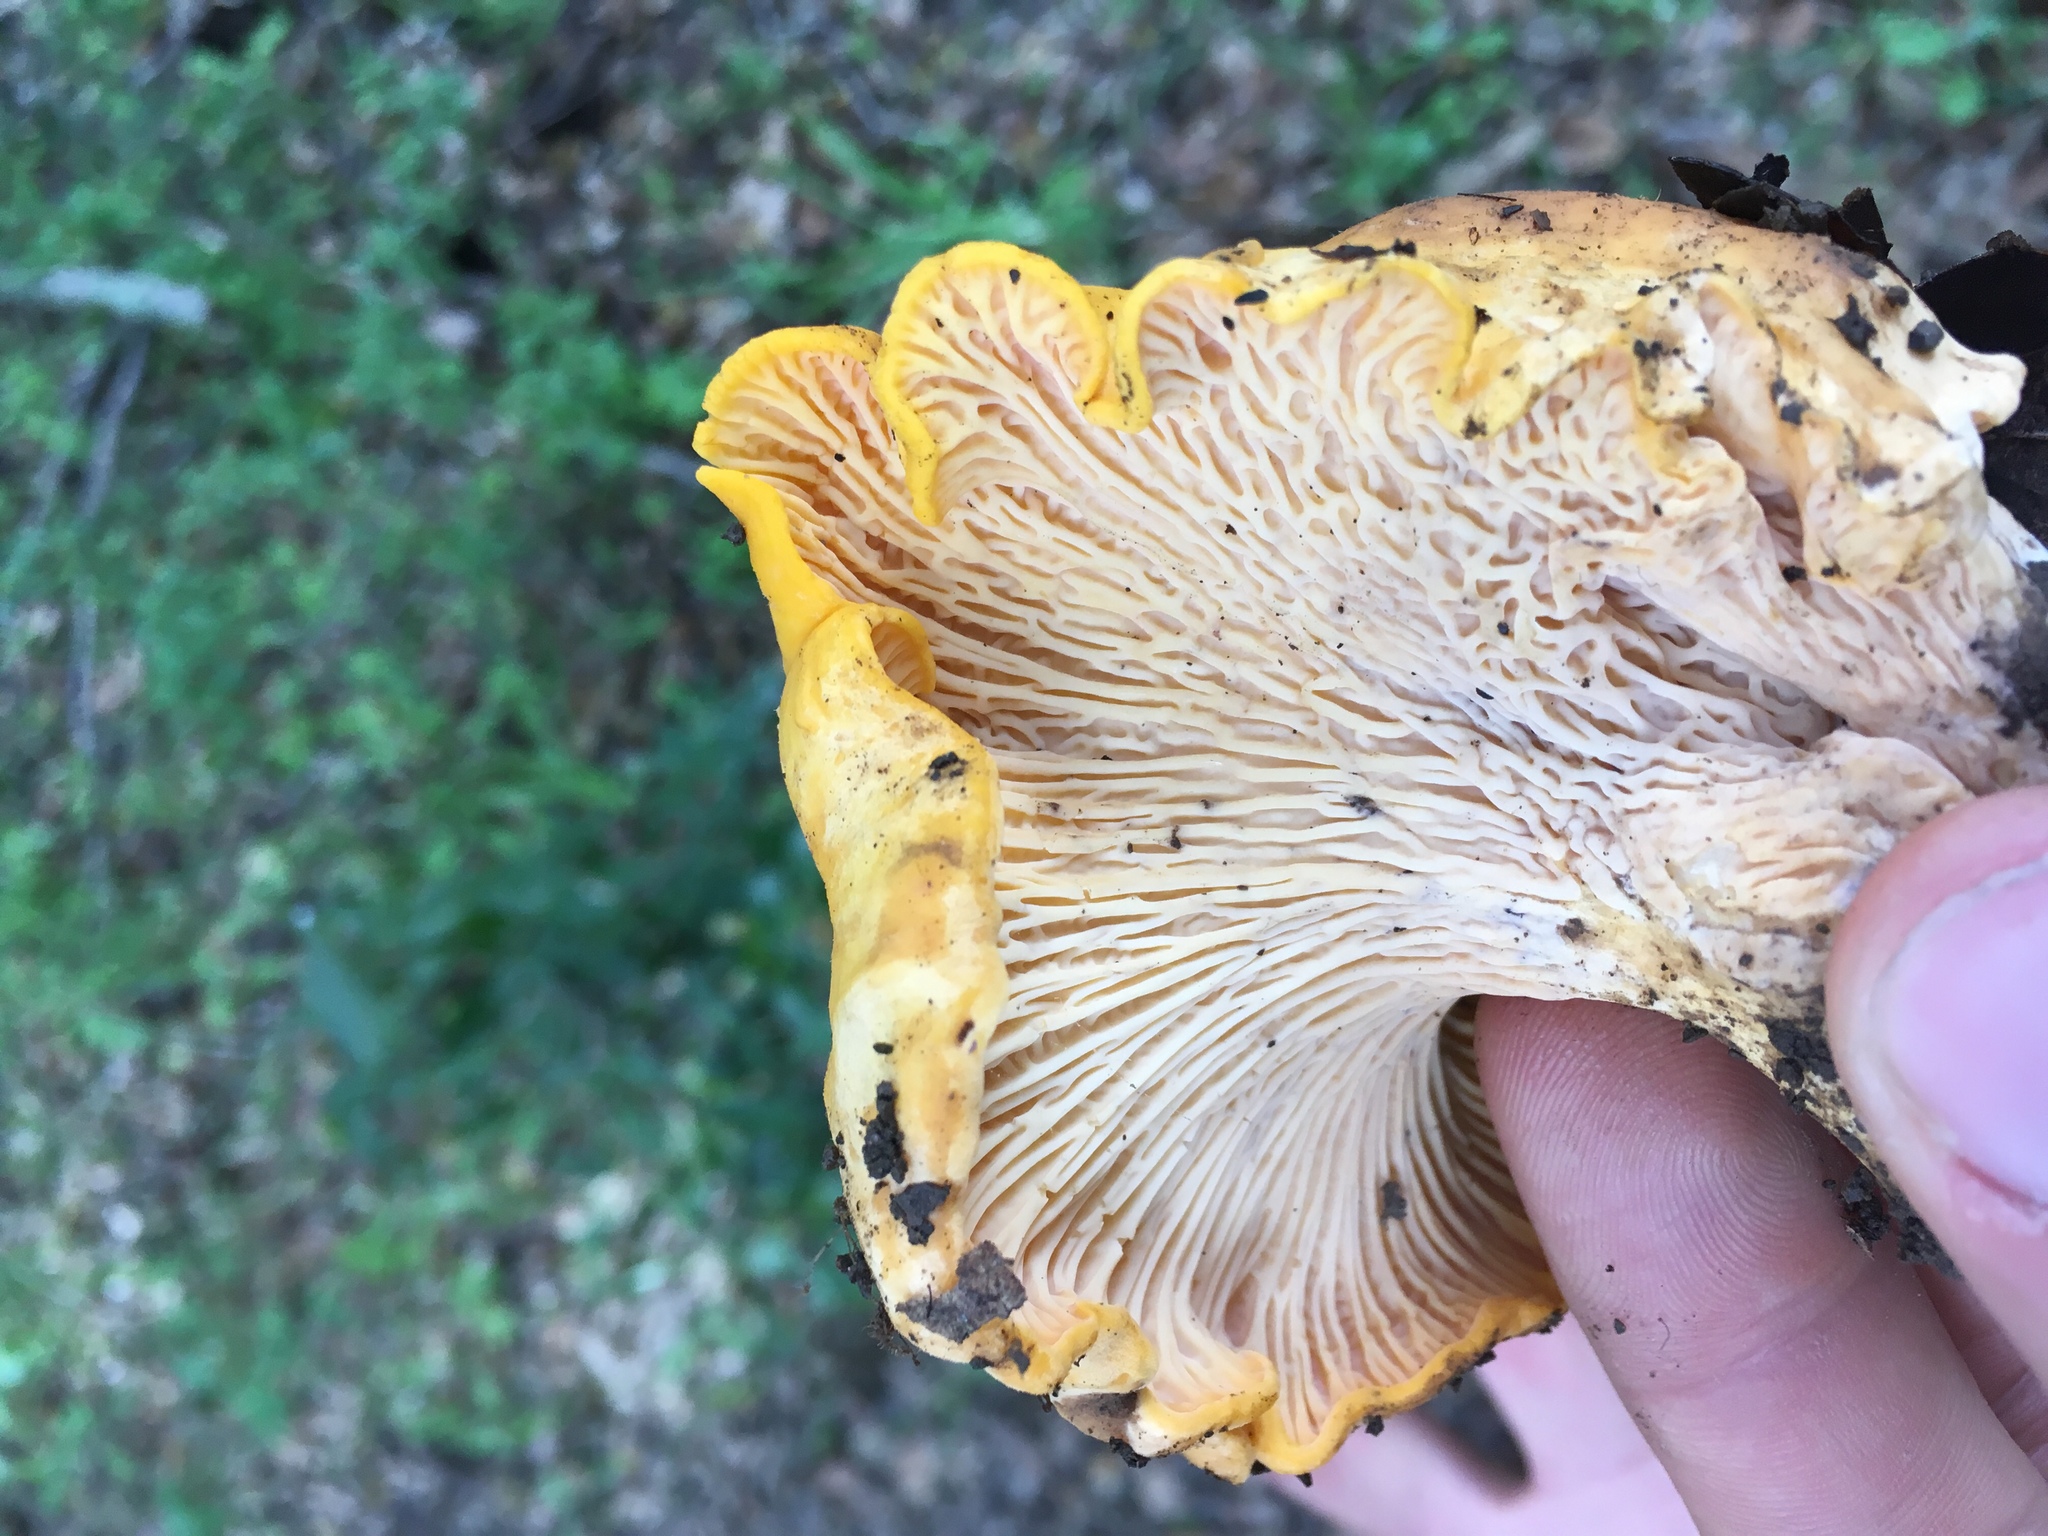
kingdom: Fungi
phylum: Basidiomycota
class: Agaricomycetes
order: Cantharellales
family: Hydnaceae
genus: Cantharellus
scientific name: Cantharellus californicus
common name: California golden chanterelle
